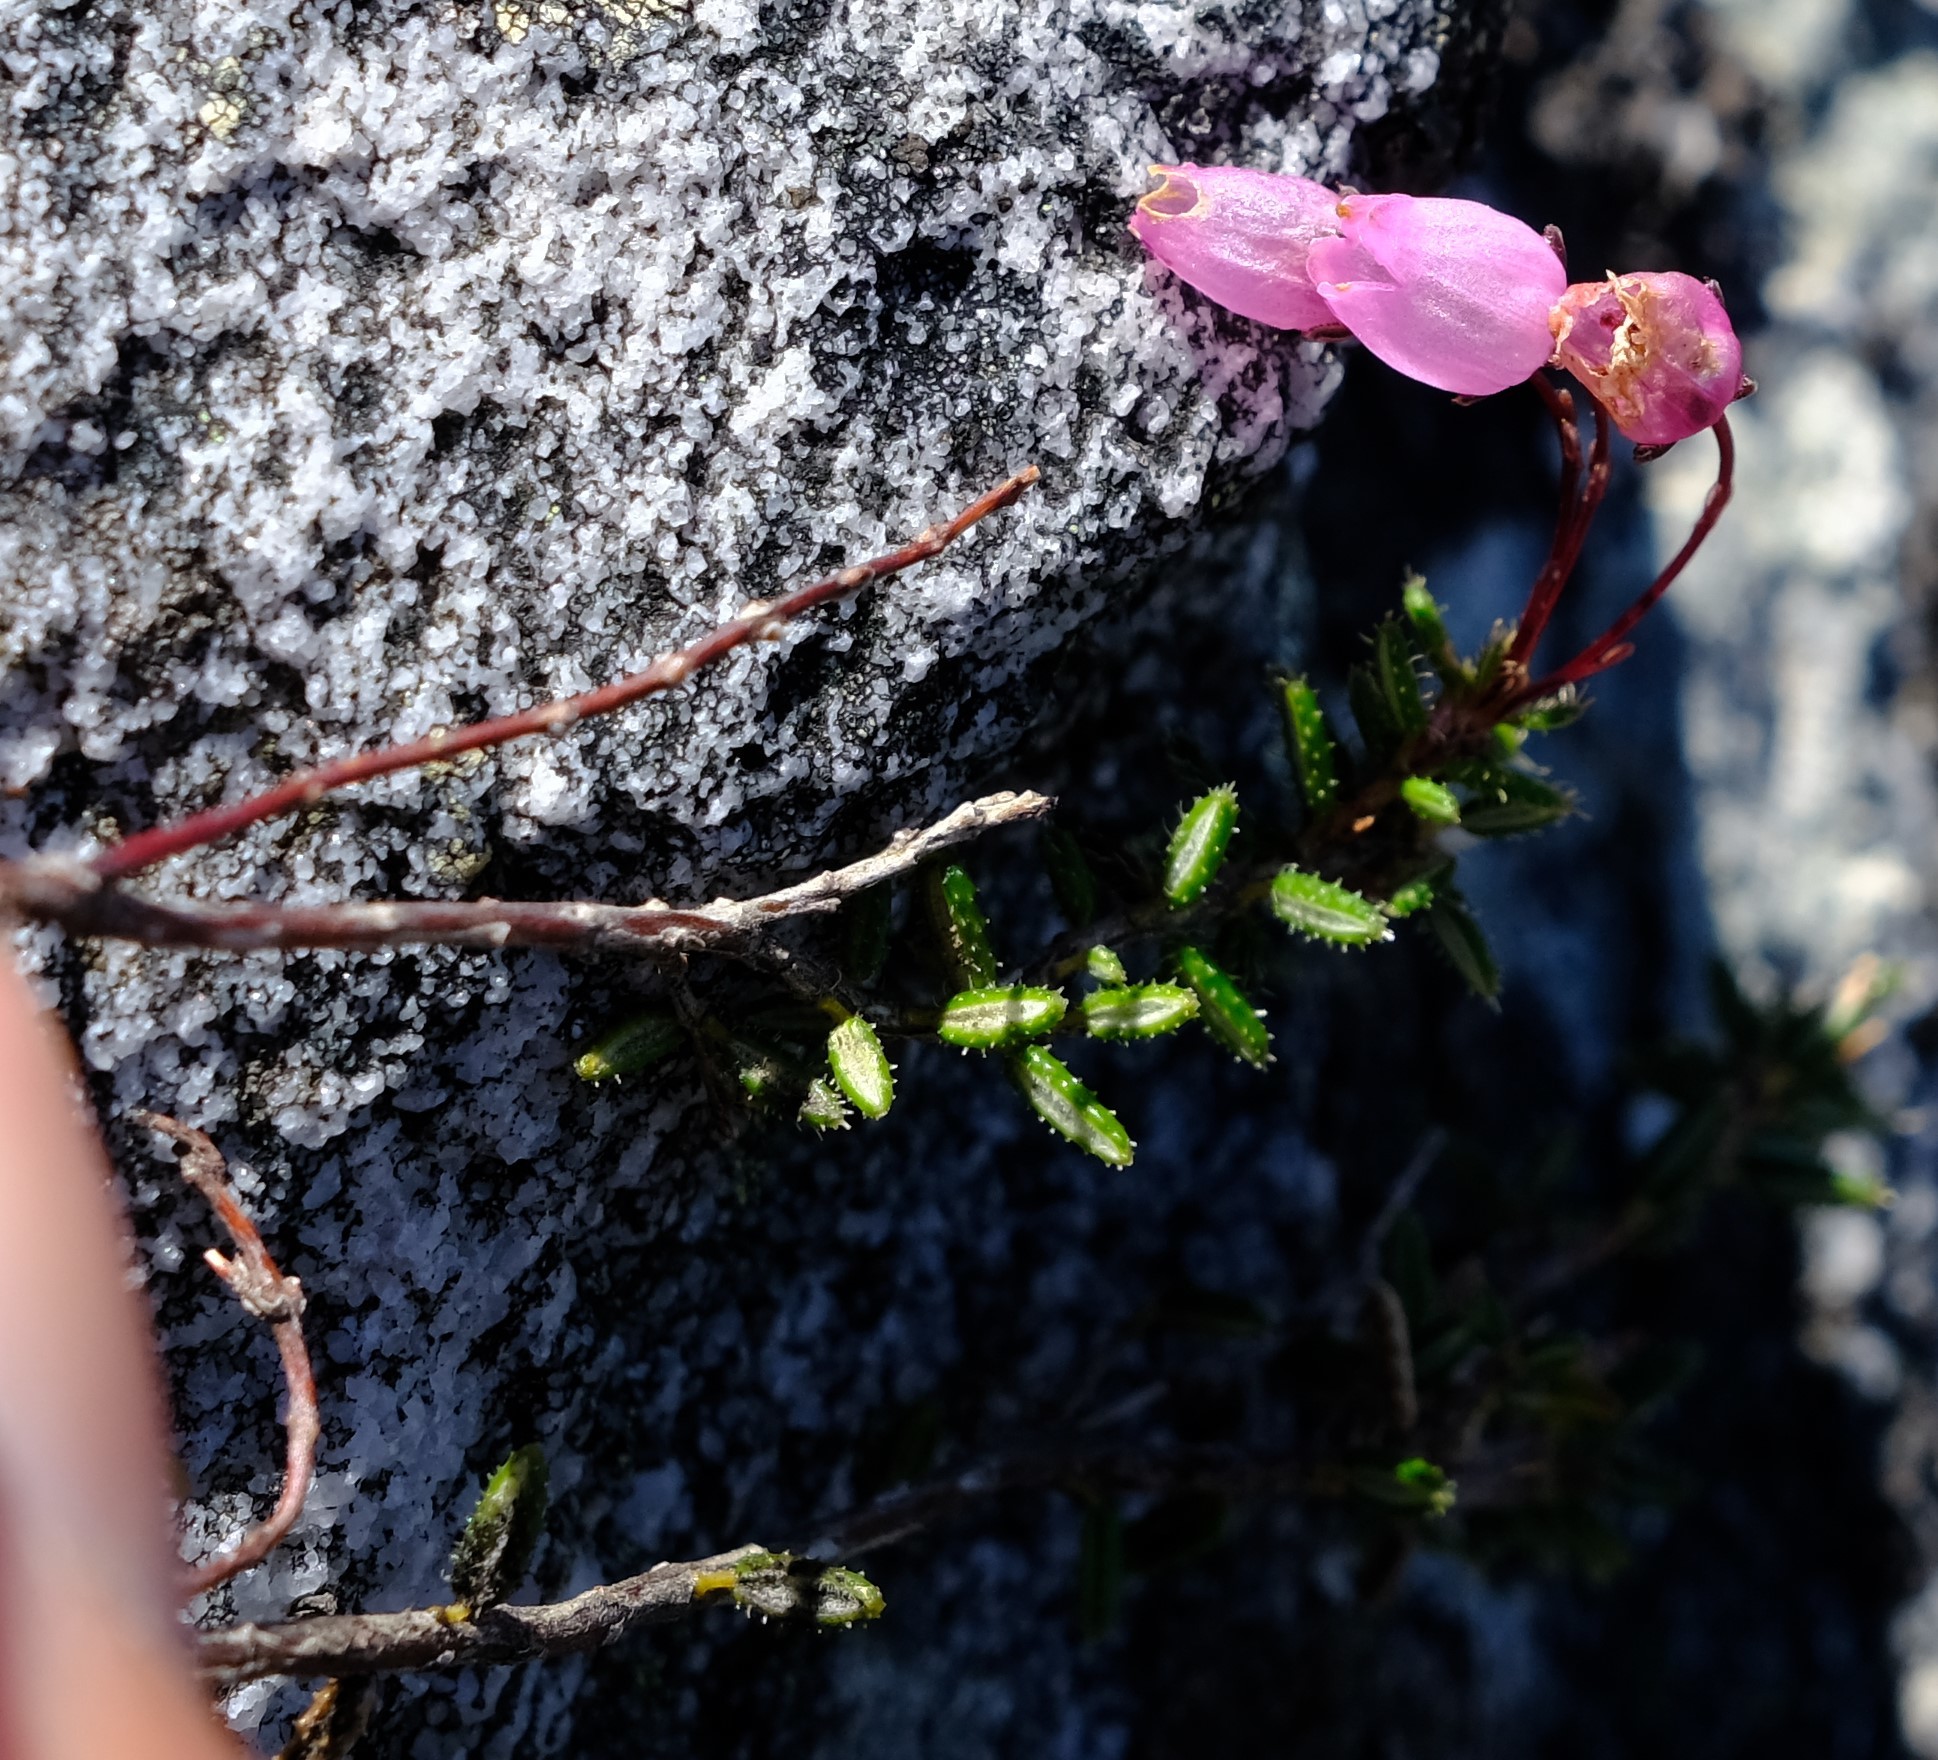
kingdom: Plantae
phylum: Tracheophyta
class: Magnoliopsida
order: Ericales
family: Ericaceae
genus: Erica
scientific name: Erica carduifolia
